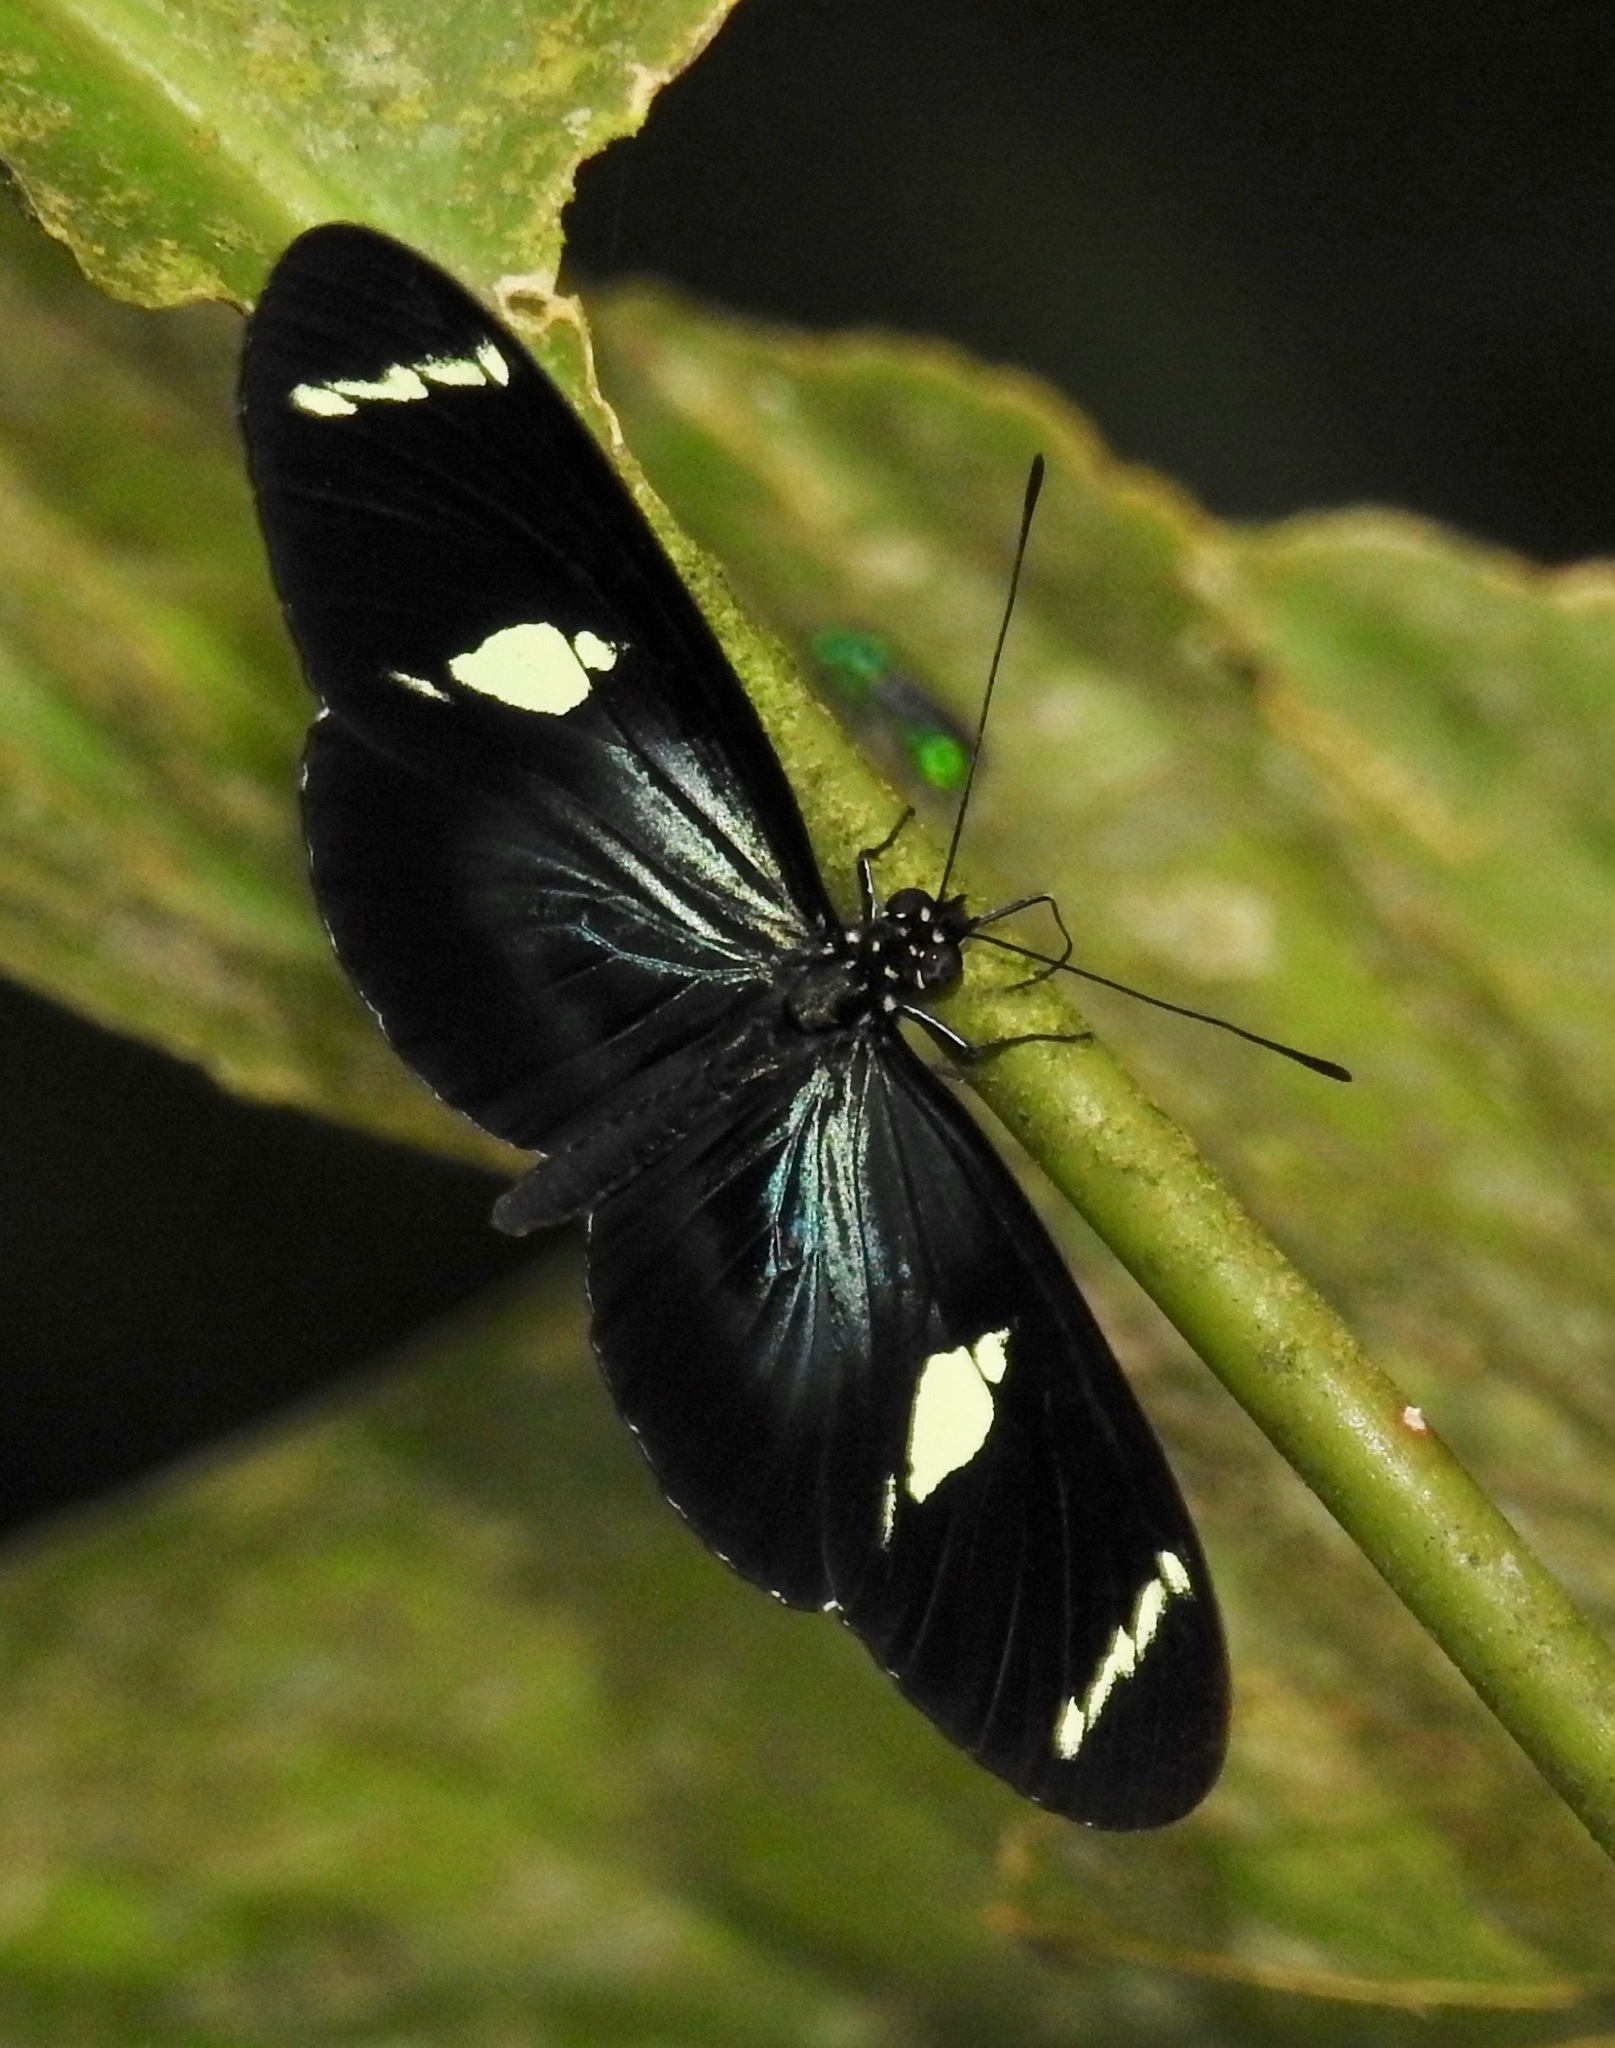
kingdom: Animalia
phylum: Arthropoda
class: Insecta
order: Lepidoptera
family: Nymphalidae
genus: Heliconius
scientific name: Heliconius sara
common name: Sara longwing
